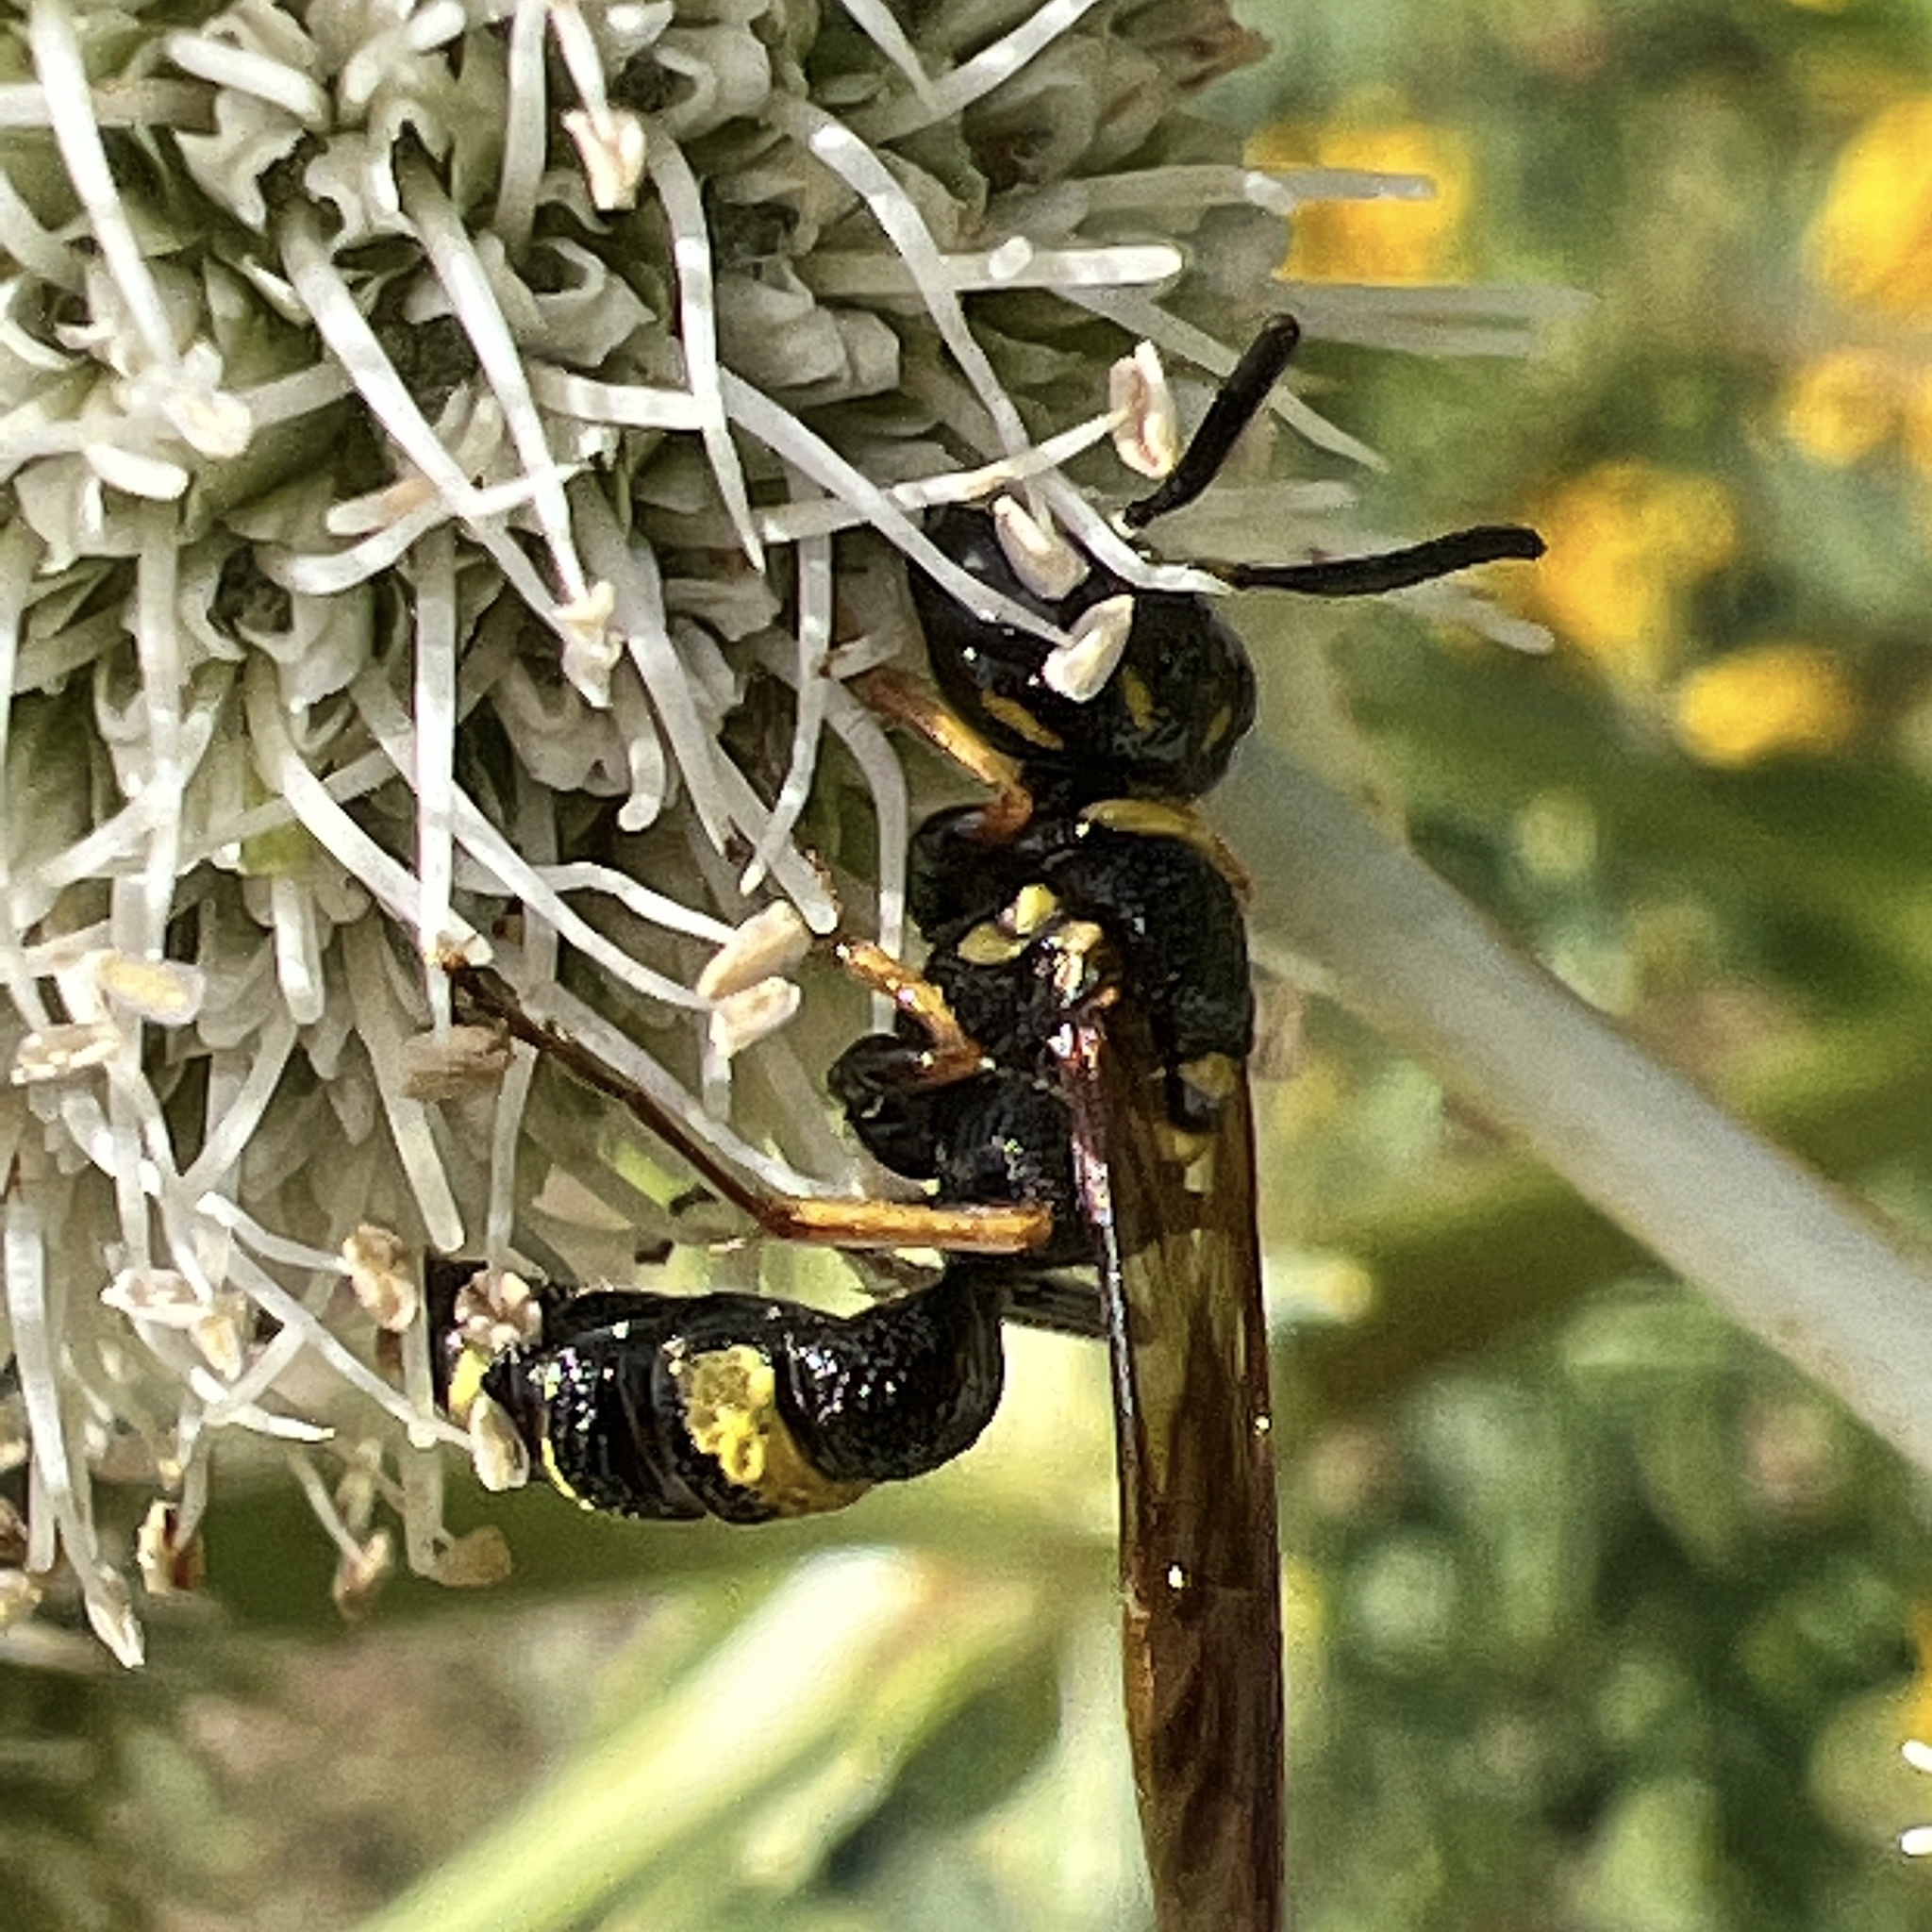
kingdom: Animalia
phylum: Arthropoda
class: Insecta
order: Hymenoptera
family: Crabronidae
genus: Philanthus
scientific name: Philanthus gibbosus
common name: Humped beewolf
